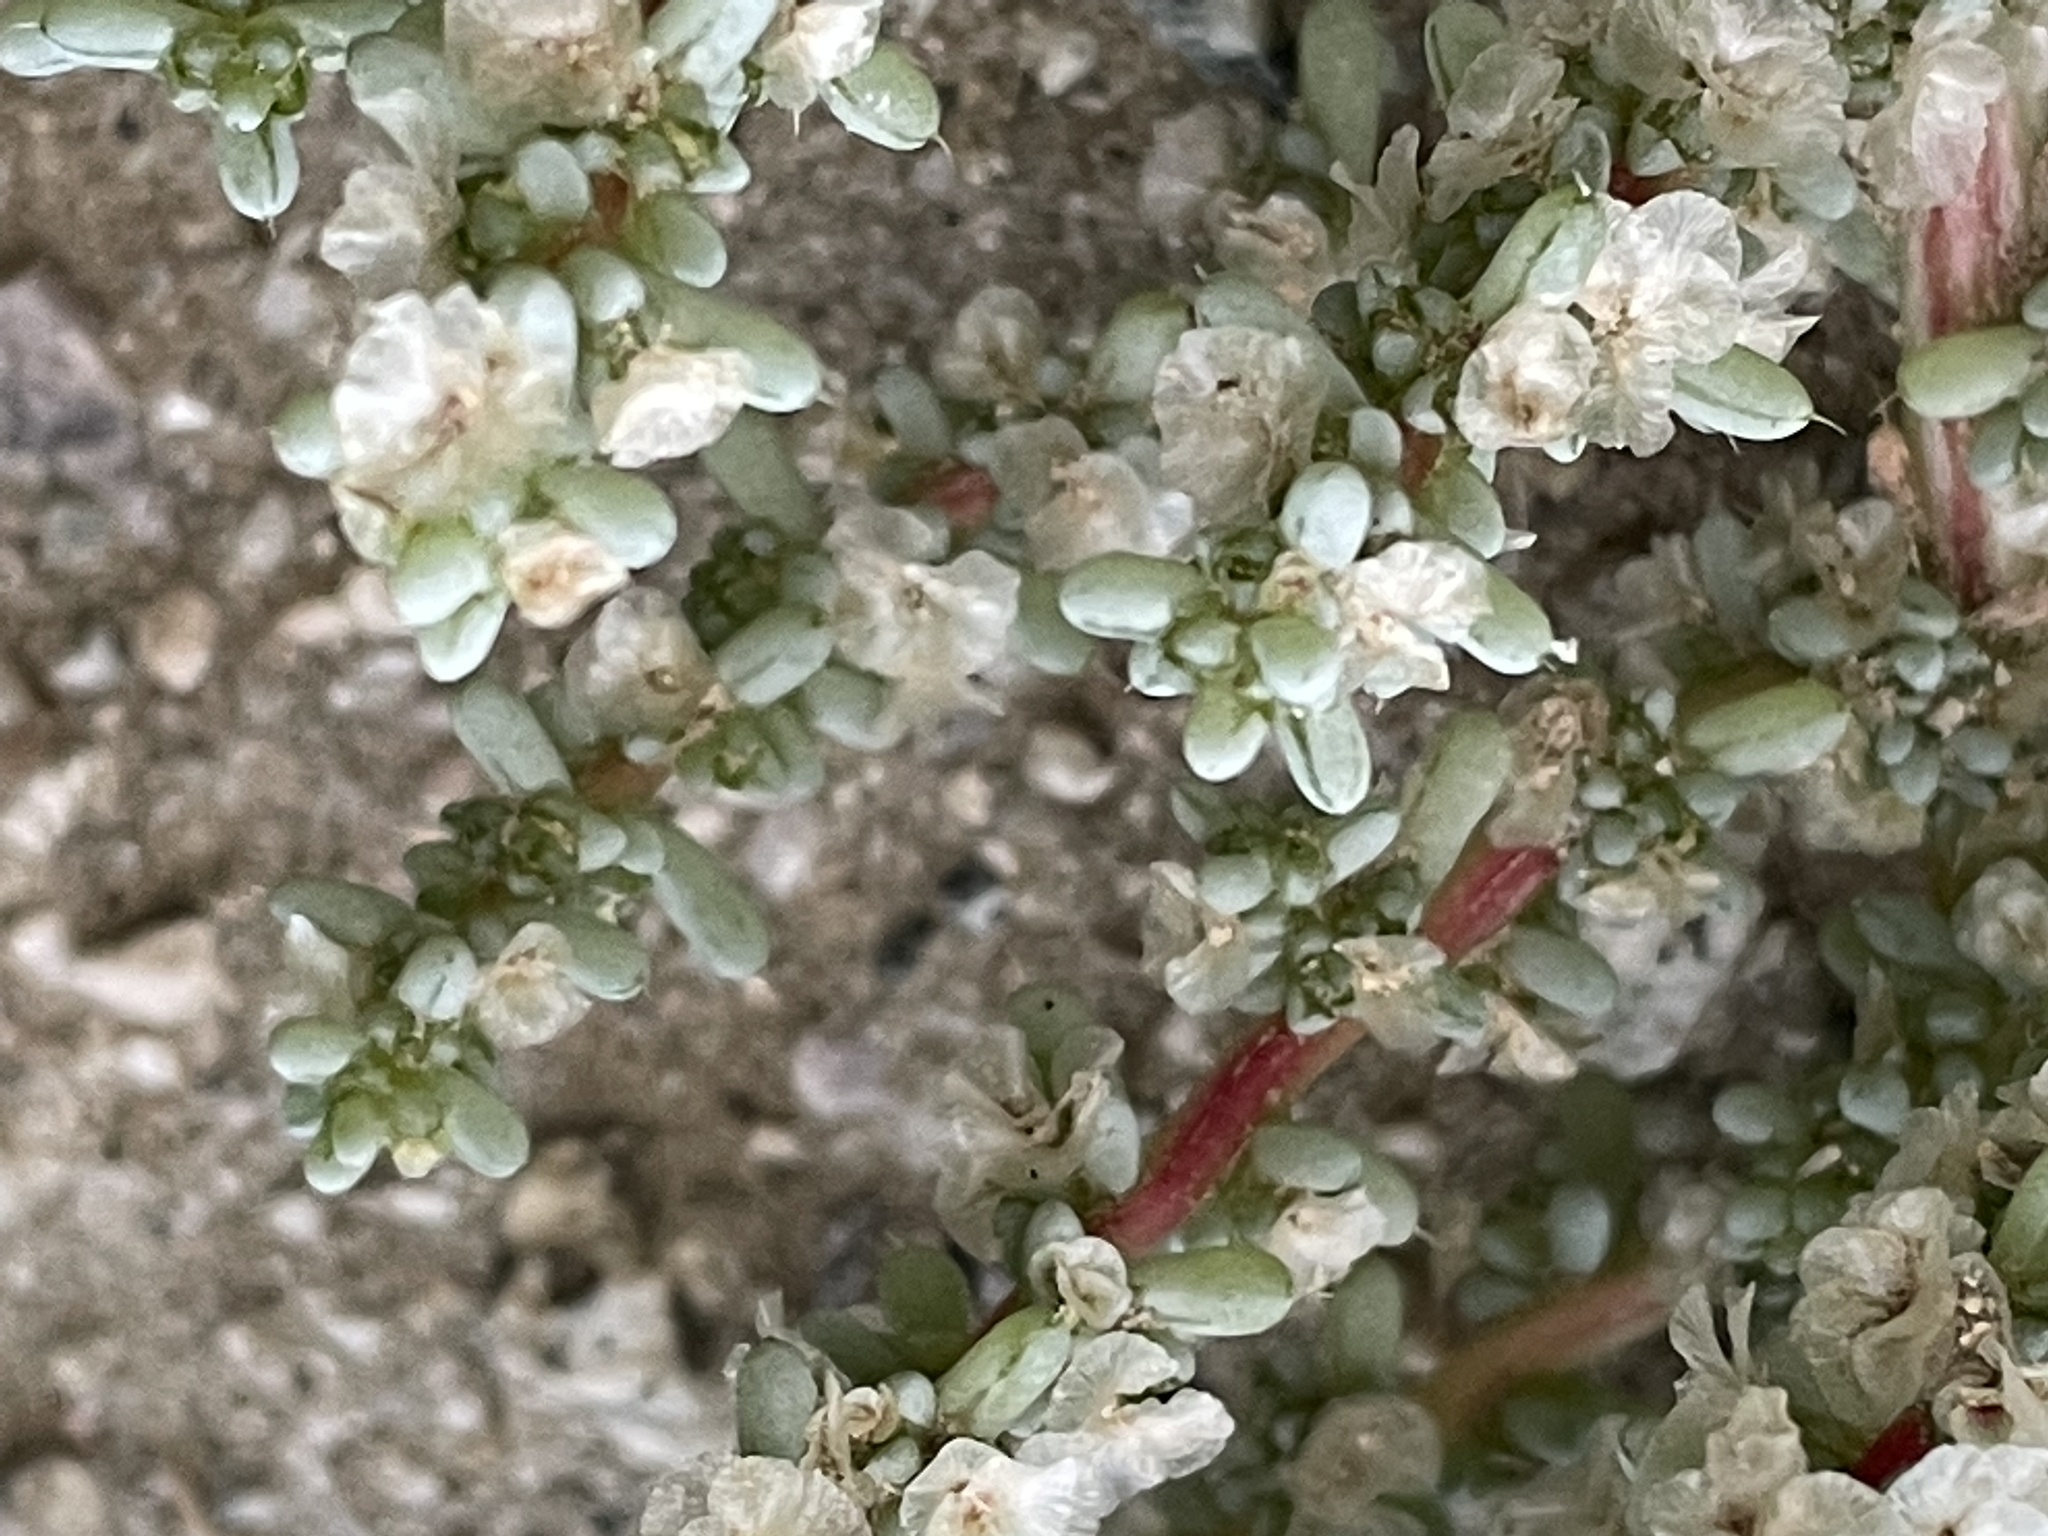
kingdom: Plantae
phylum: Tracheophyta
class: Magnoliopsida
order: Caryophyllales
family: Amaranthaceae
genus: Halogeton
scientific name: Halogeton glomeratus
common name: Saltlover
